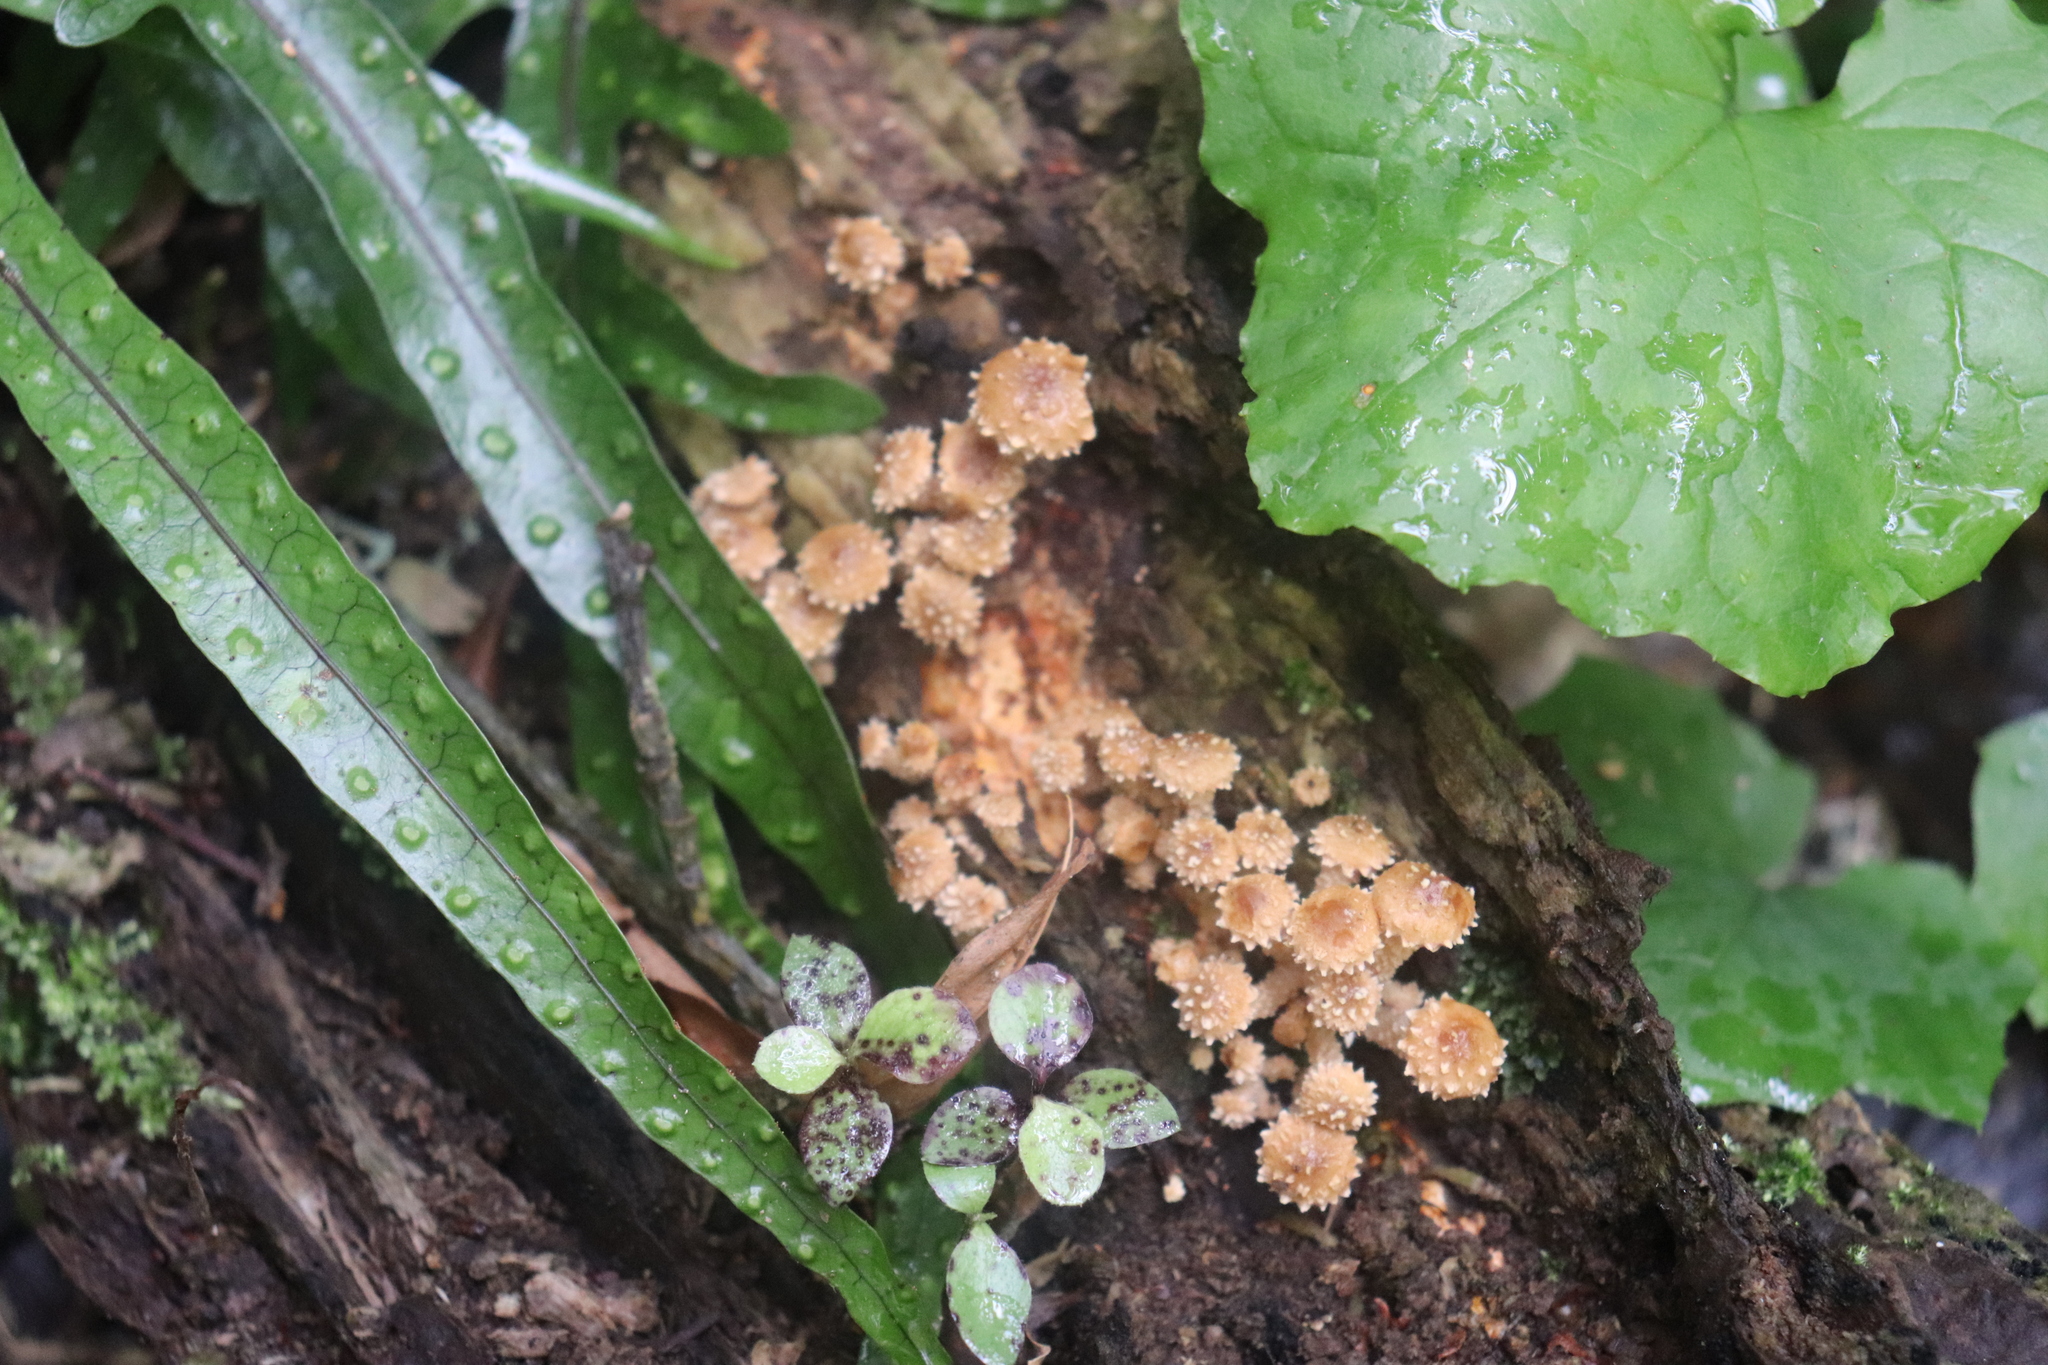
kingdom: Fungi
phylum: Basidiomycota
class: Agaricomycetes
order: Agaricales
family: Strophariaceae
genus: Pholiota
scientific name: Pholiota subflammans
